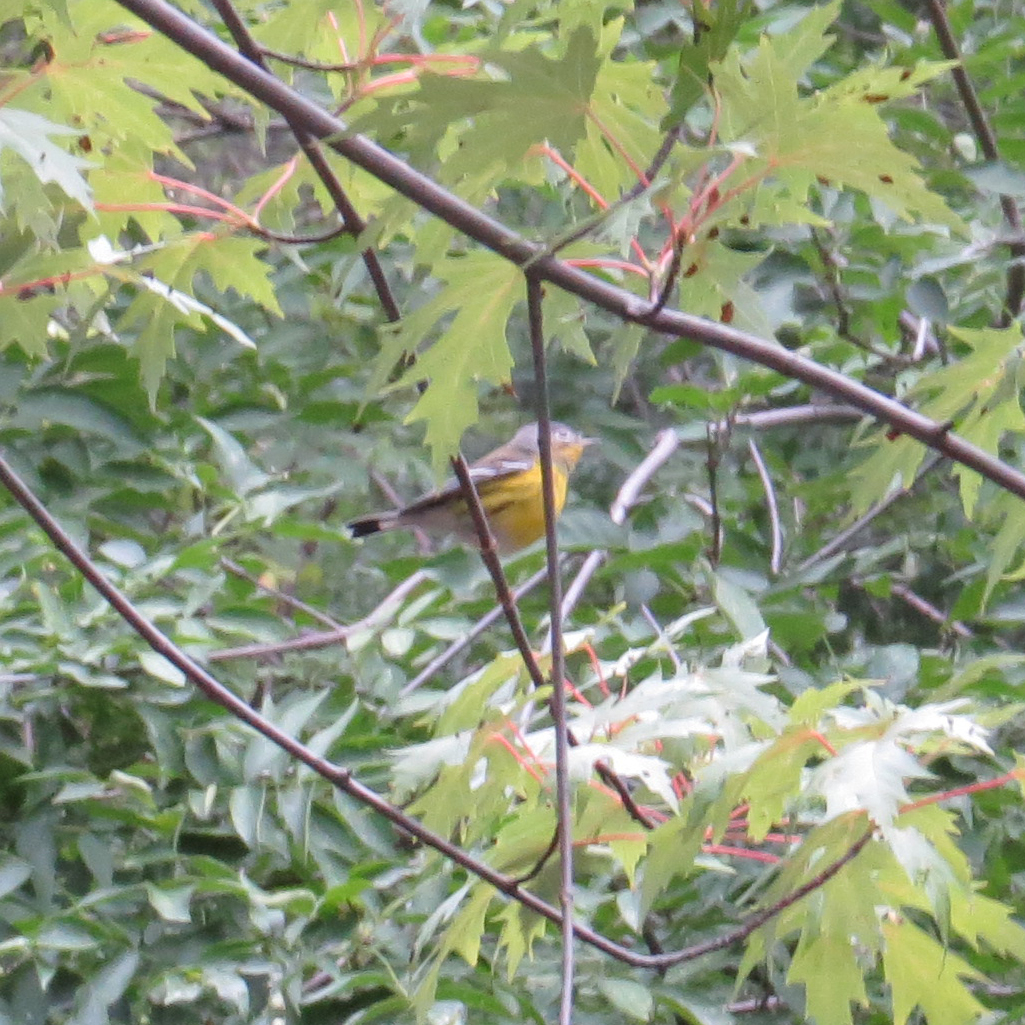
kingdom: Animalia
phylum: Chordata
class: Aves
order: Passeriformes
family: Parulidae
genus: Setophaga
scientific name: Setophaga magnolia
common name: Magnolia warbler
